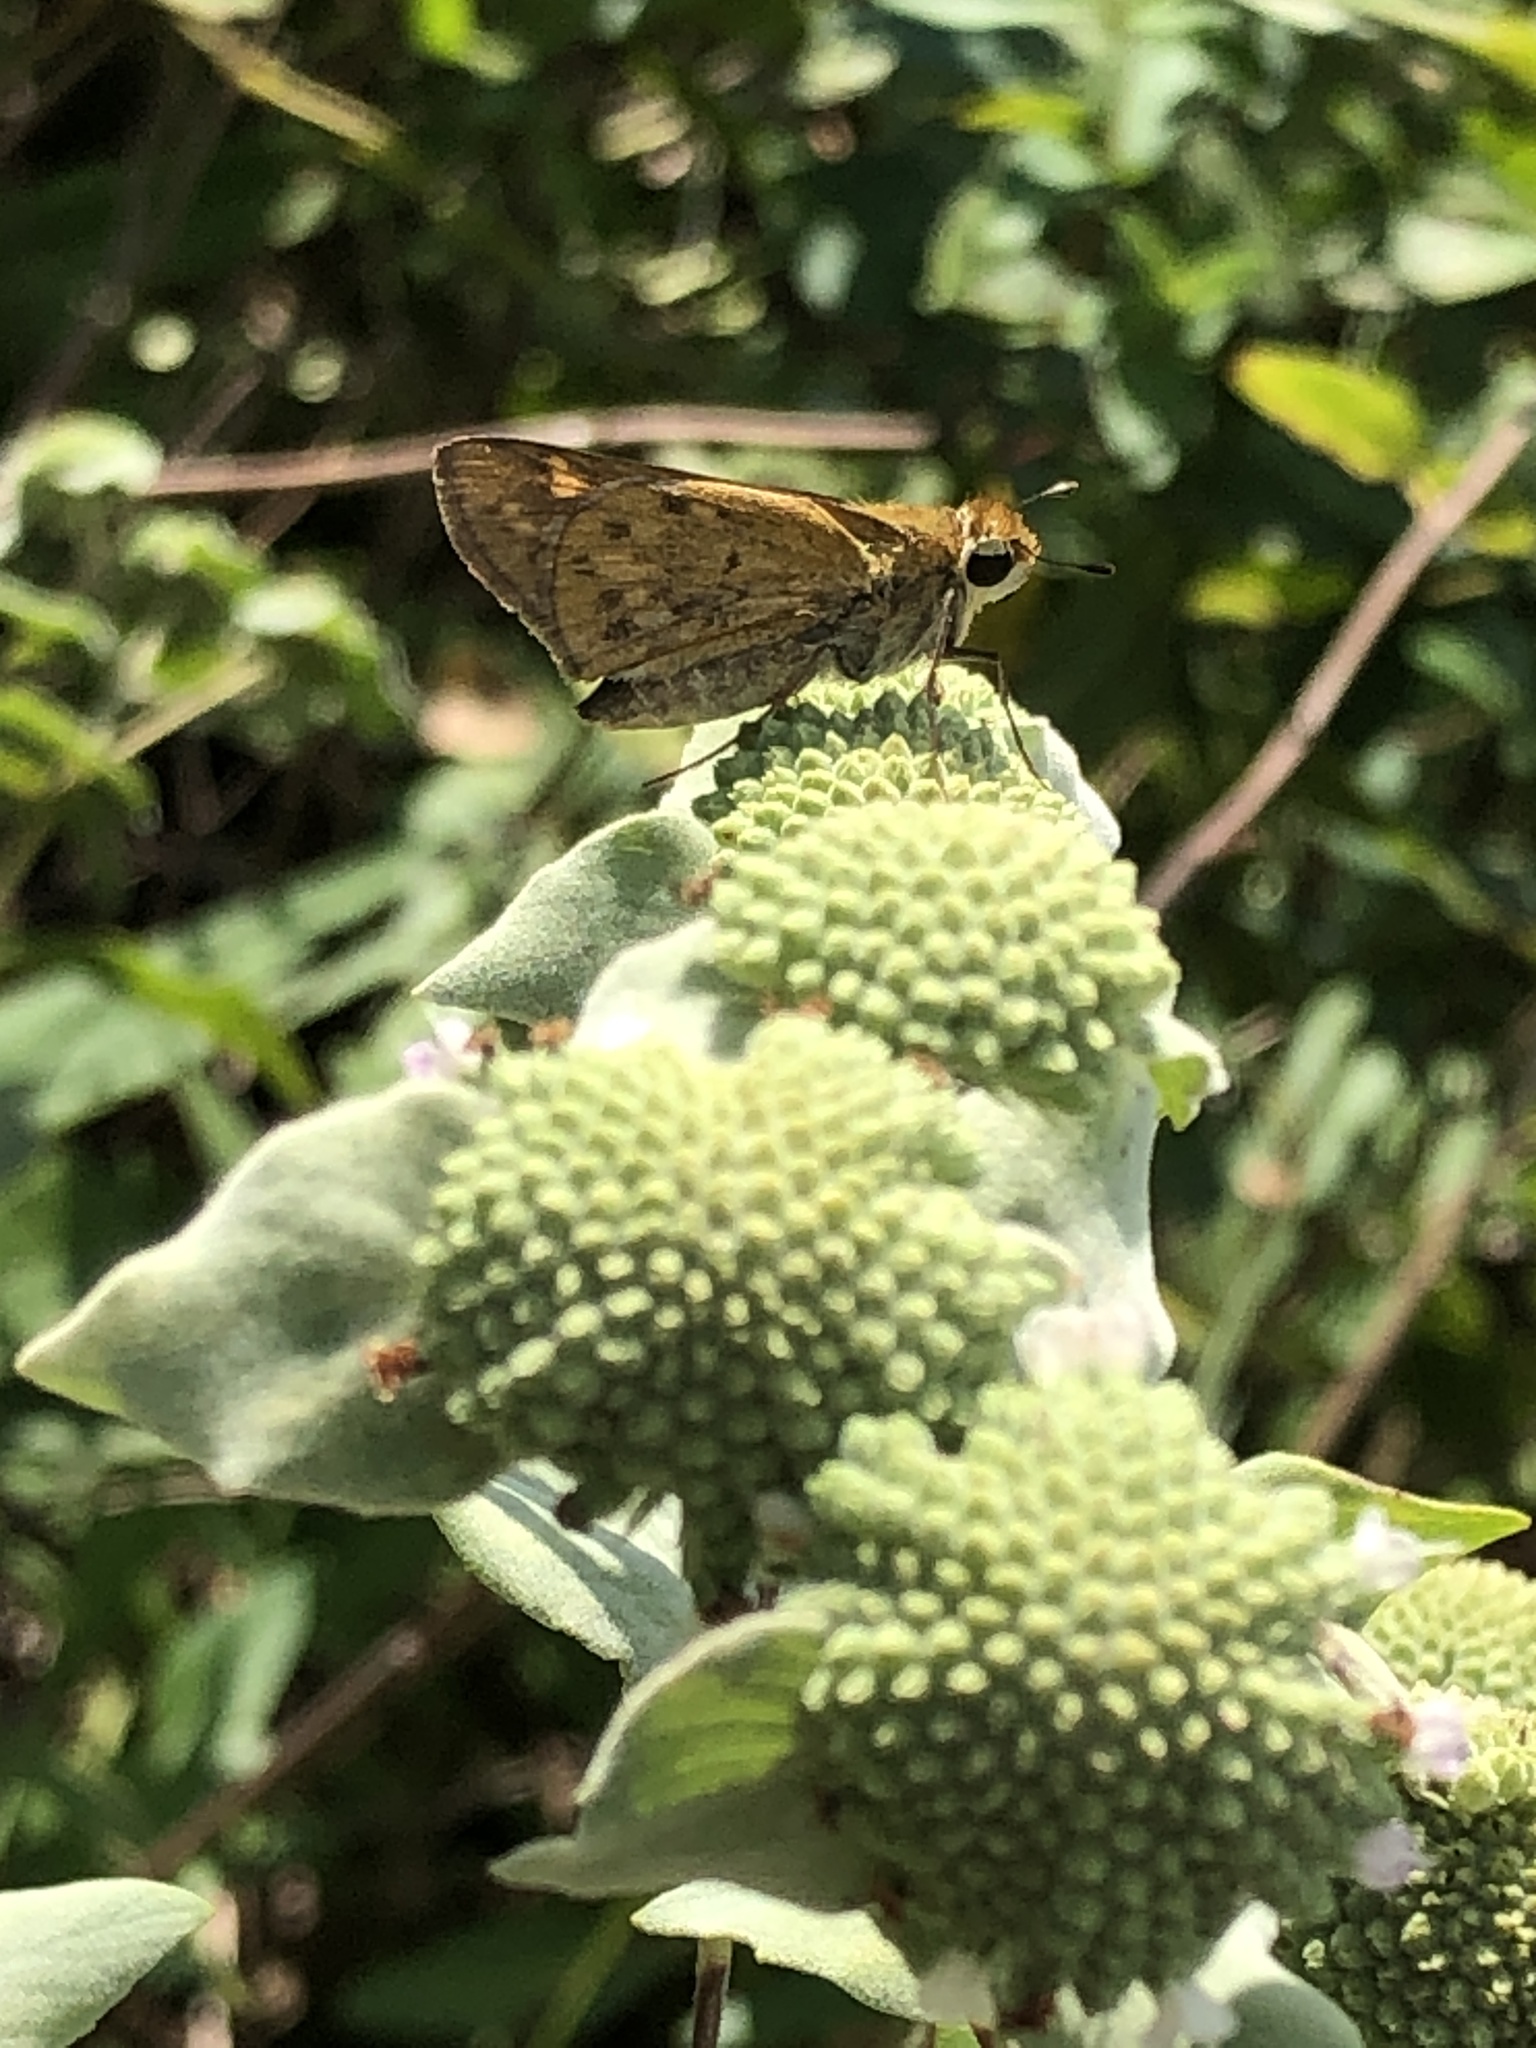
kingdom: Animalia
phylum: Arthropoda
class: Insecta
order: Lepidoptera
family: Hesperiidae
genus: Hylephila
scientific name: Hylephila phyleus
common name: Fiery skipper
